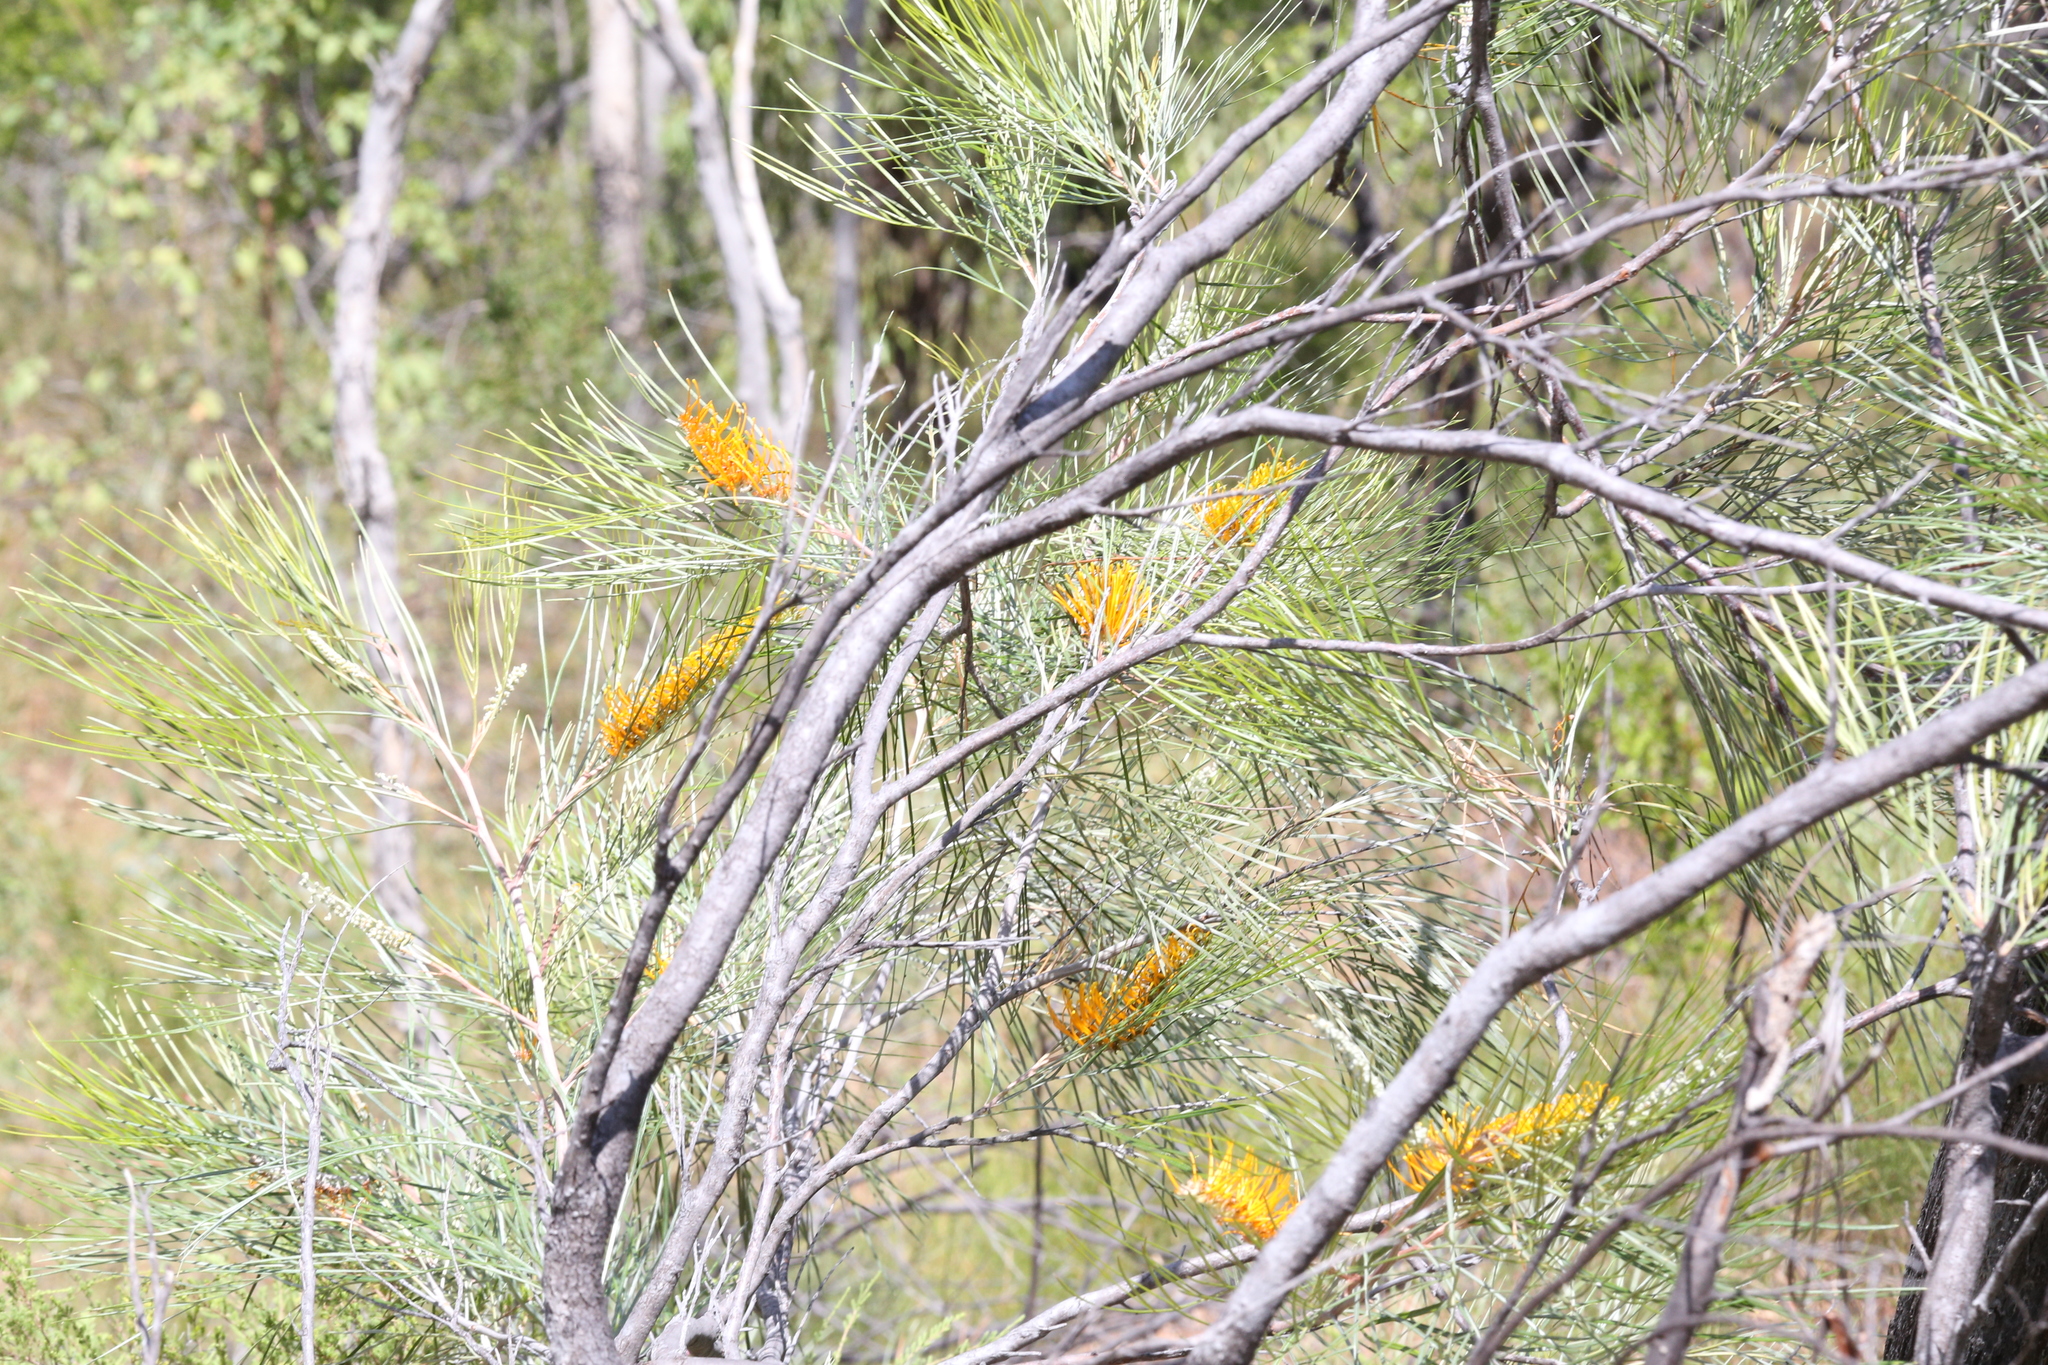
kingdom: Plantae
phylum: Tracheophyta
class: Magnoliopsida
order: Proteales
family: Proteaceae
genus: Grevillea
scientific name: Grevillea pteridifolia
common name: Golden grevillea
